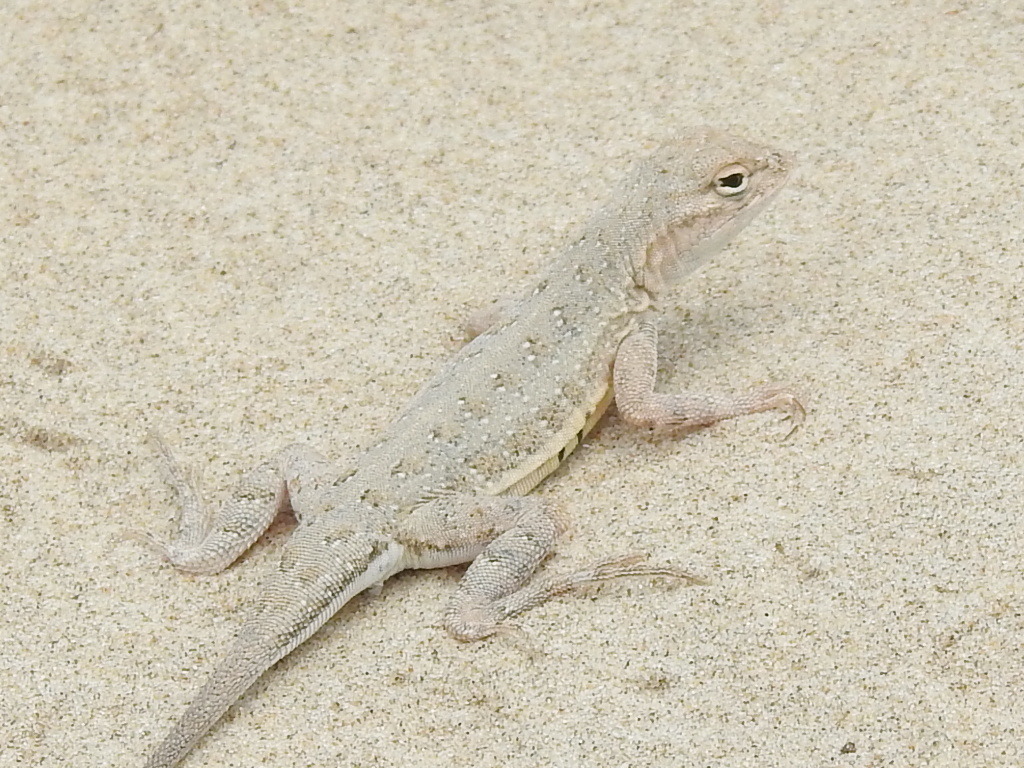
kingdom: Animalia
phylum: Chordata
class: Squamata
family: Phrynosomatidae
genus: Holbrookia
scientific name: Holbrookia propinqua
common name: Keeled earless lizard
